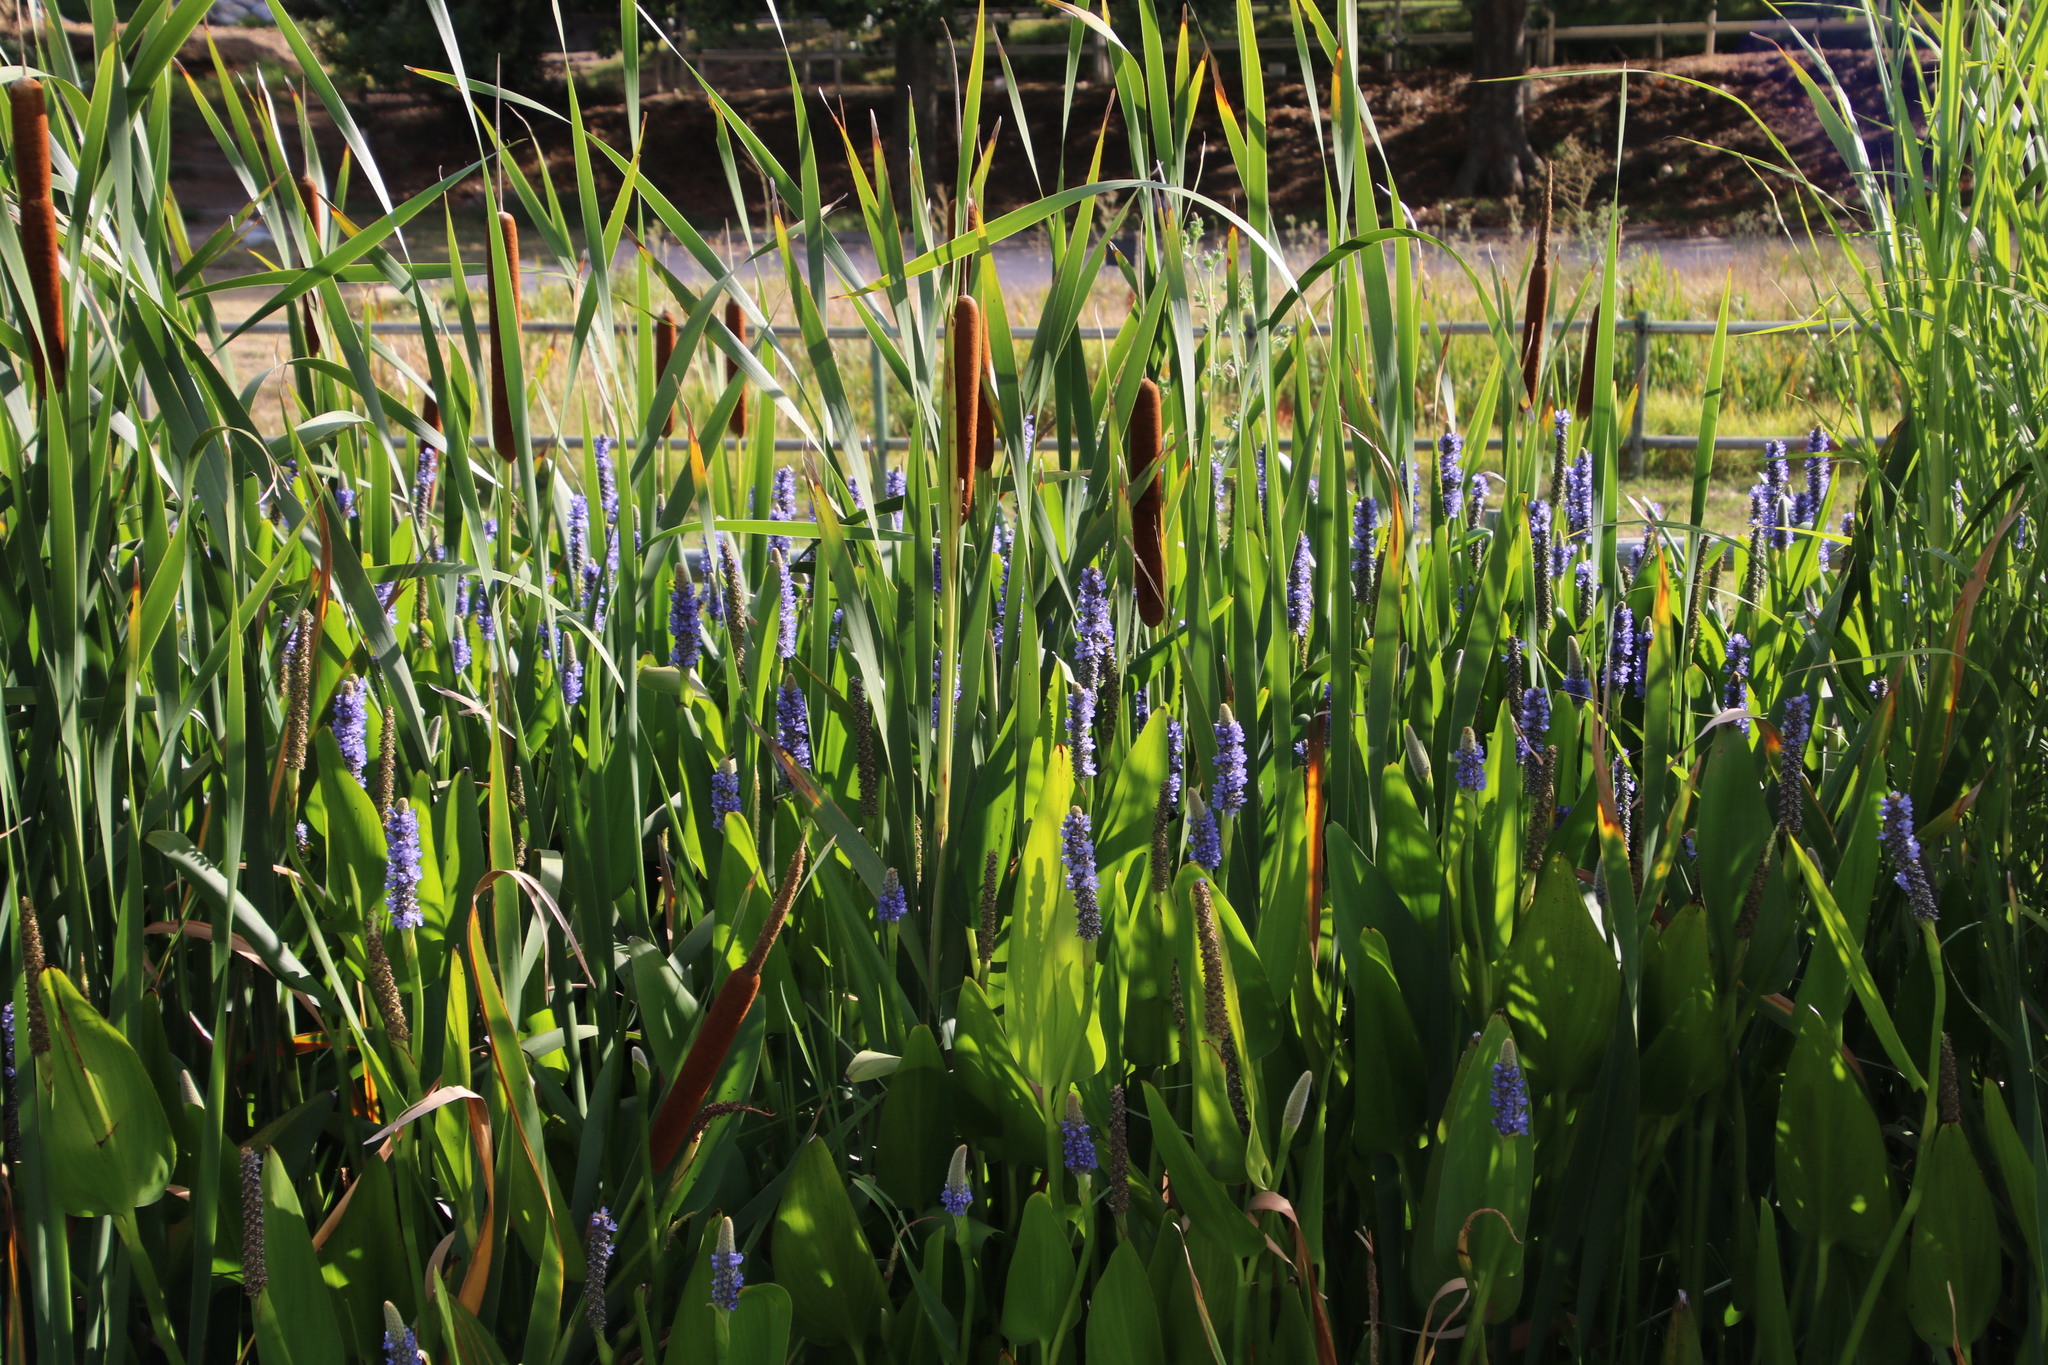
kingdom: Plantae
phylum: Tracheophyta
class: Liliopsida
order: Poales
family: Typhaceae
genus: Typha
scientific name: Typha capensis
